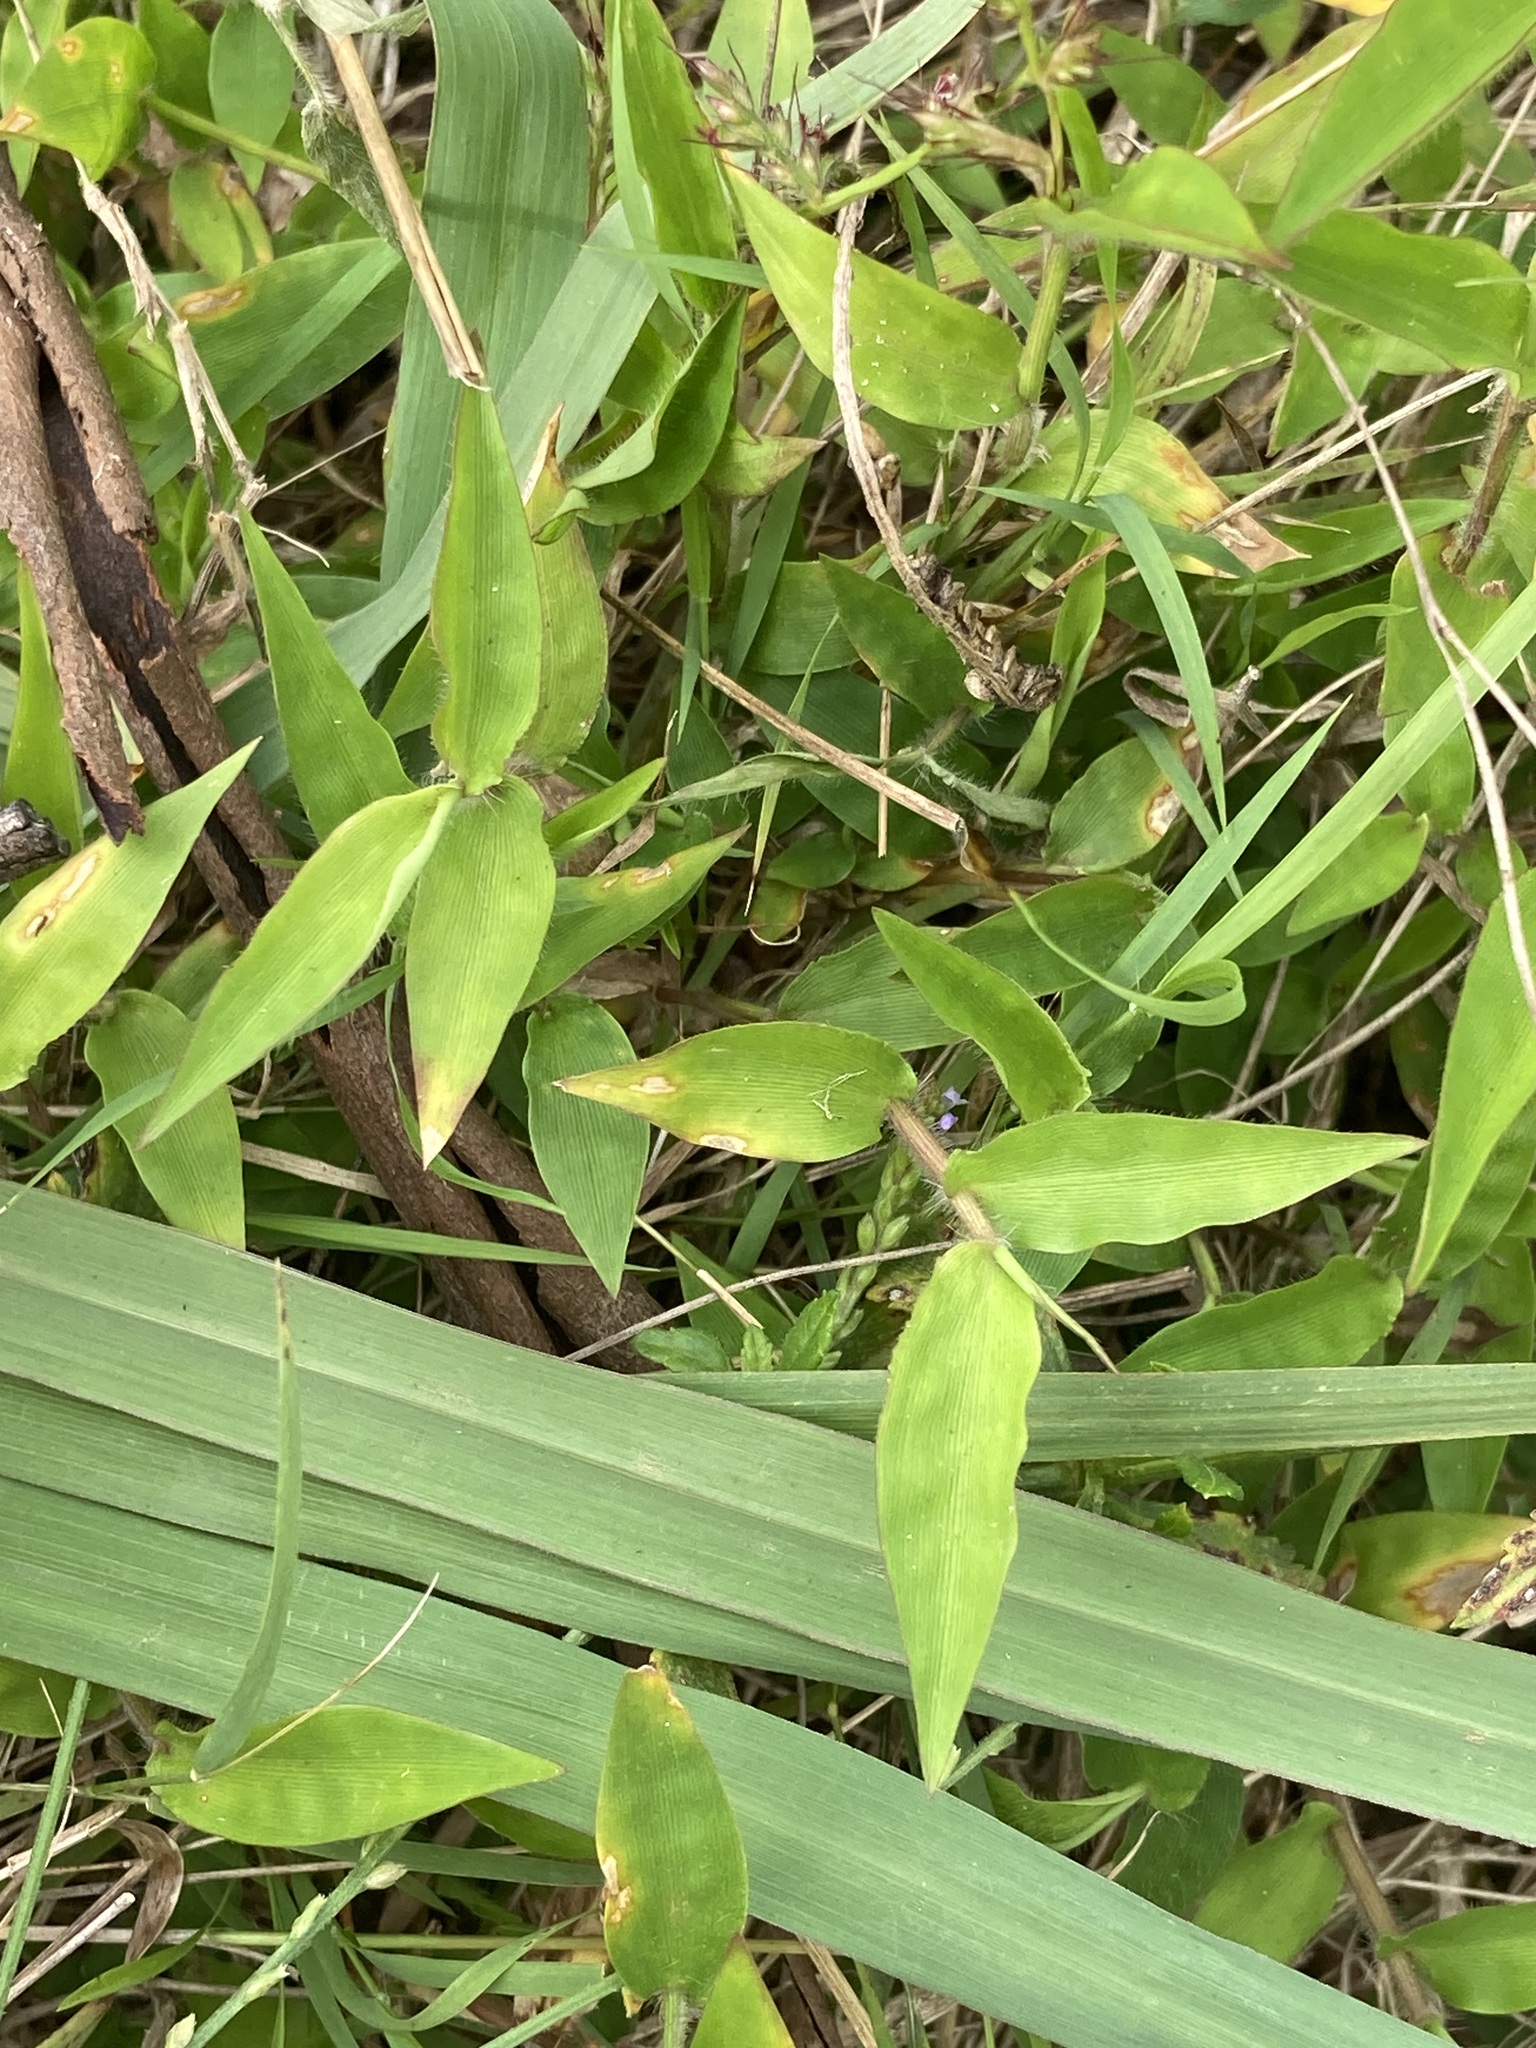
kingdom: Plantae
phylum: Tracheophyta
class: Liliopsida
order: Poales
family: Poaceae
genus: Oplismenus
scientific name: Oplismenus hirtellus
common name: Basketgrass
